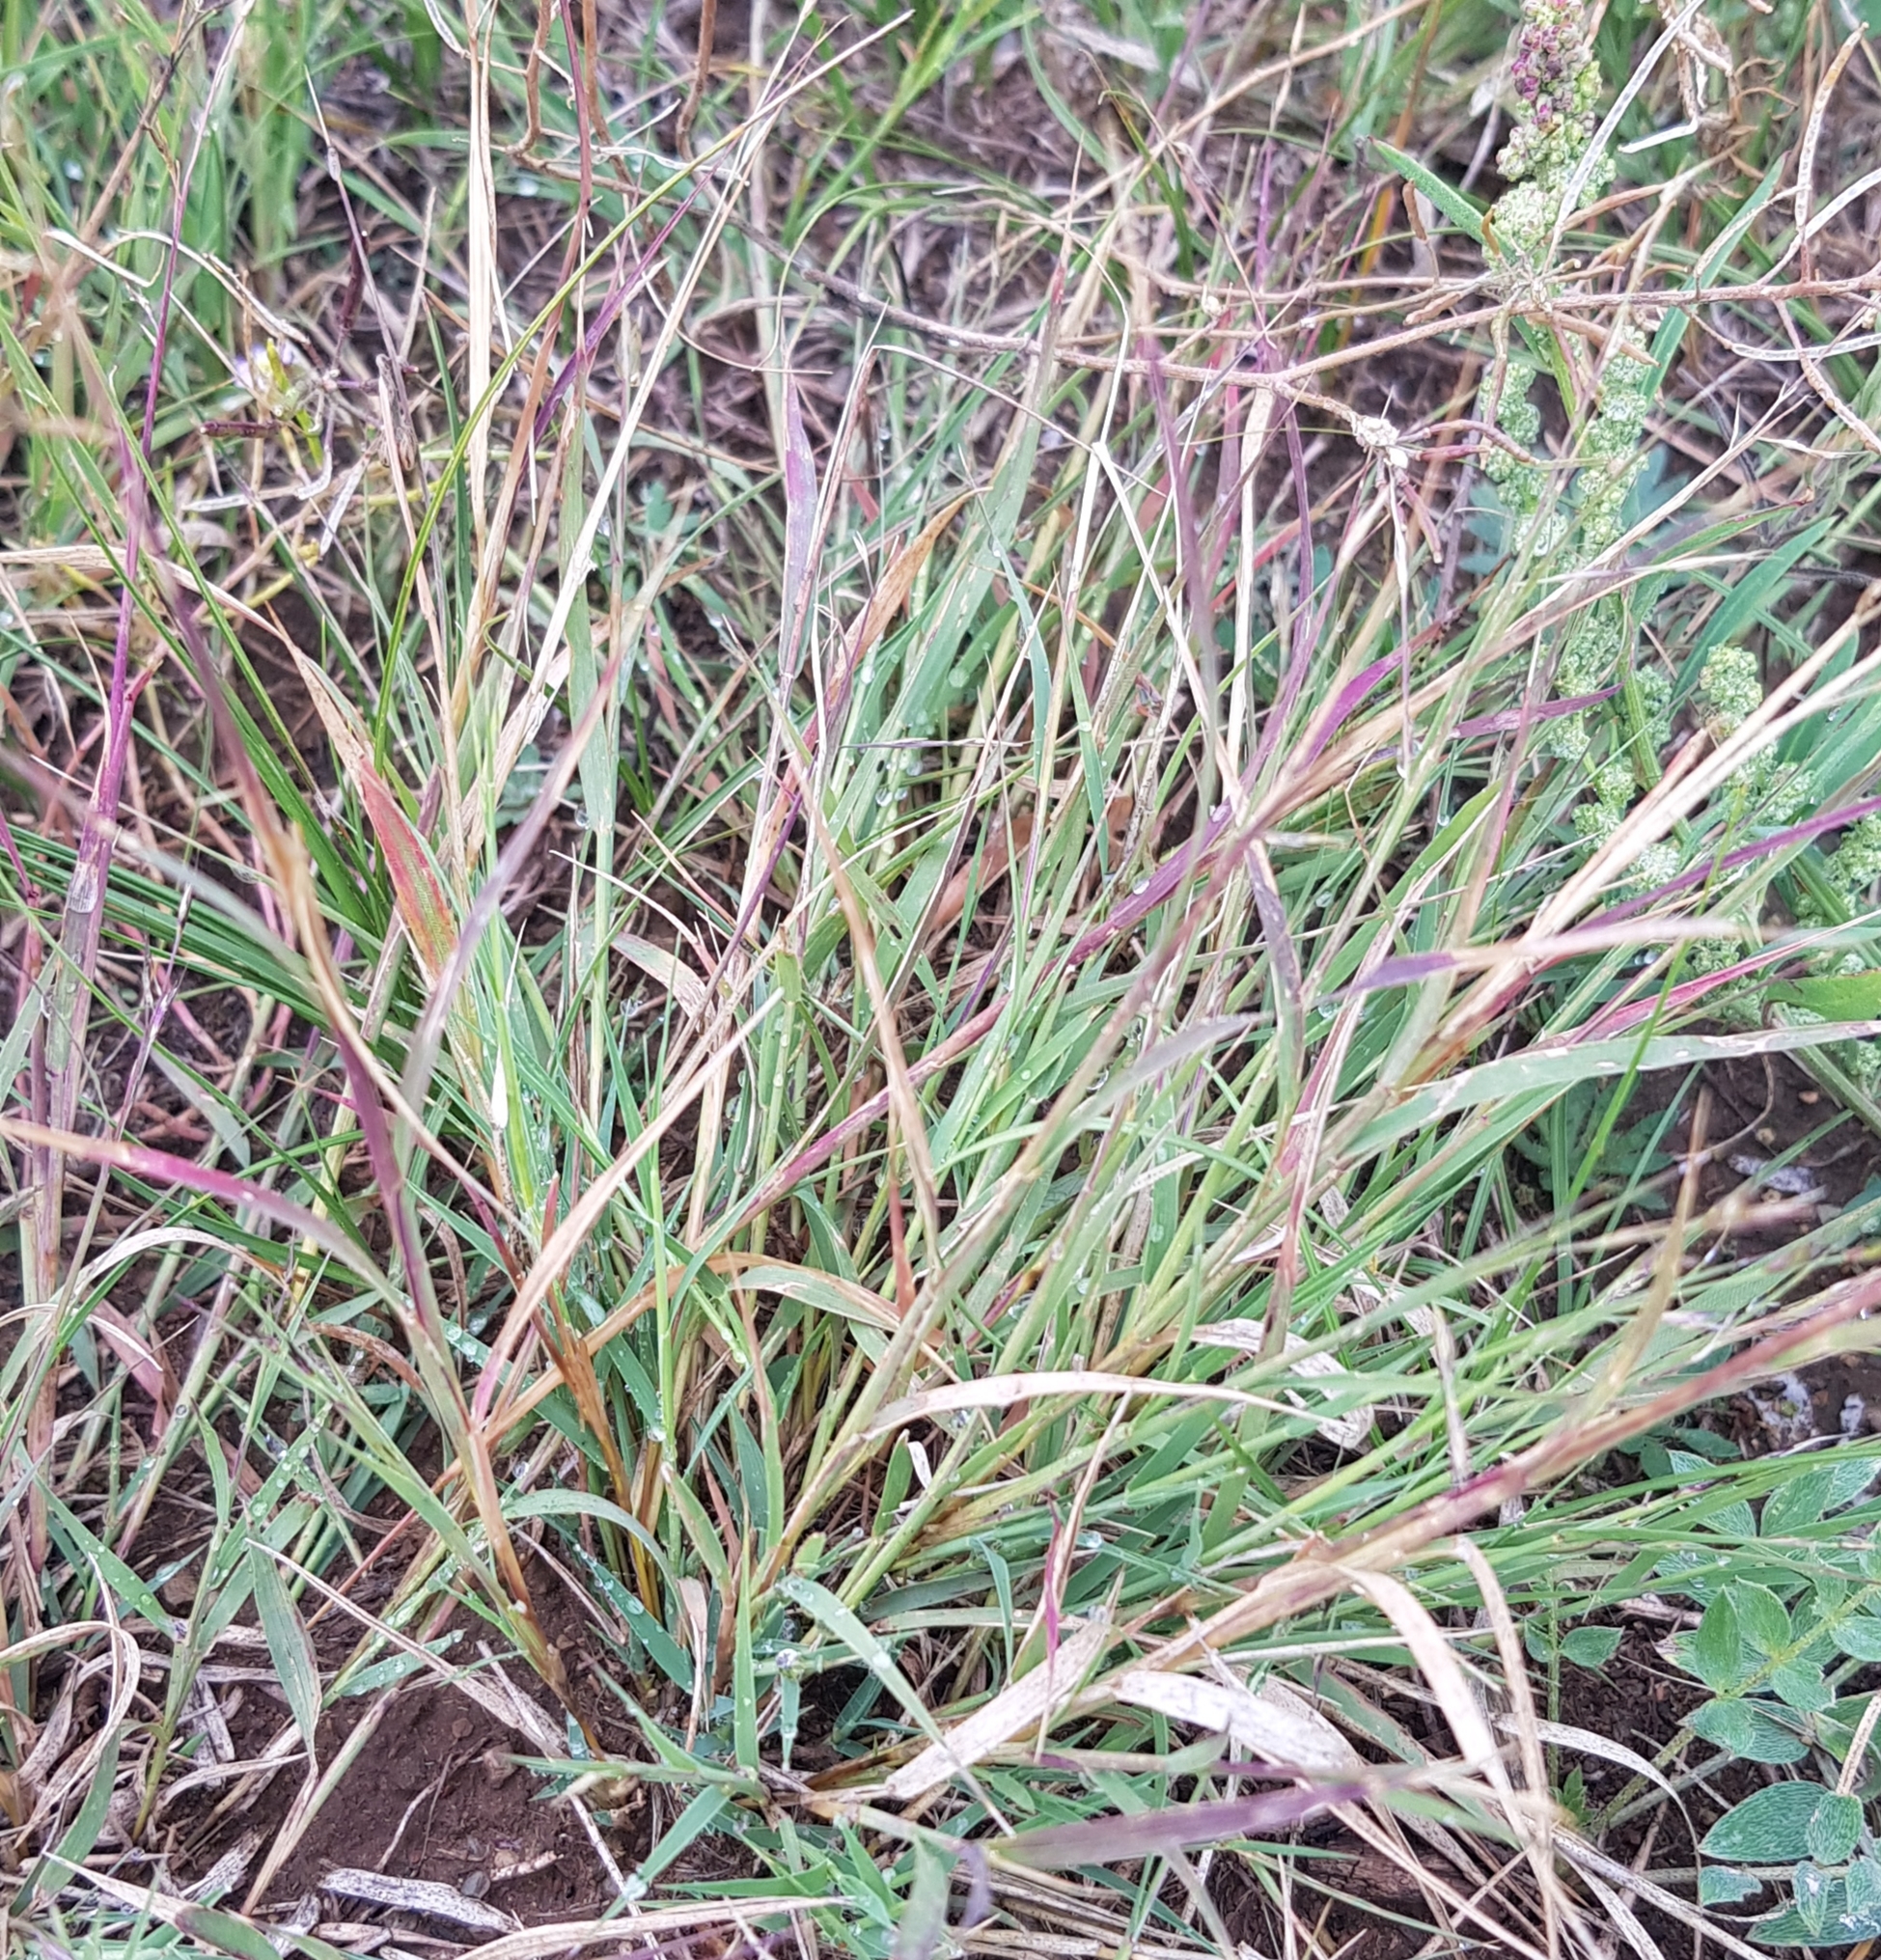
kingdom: Plantae
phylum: Tracheophyta
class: Liliopsida
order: Poales
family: Poaceae
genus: Cleistogenes
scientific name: Cleistogenes squarrosa
